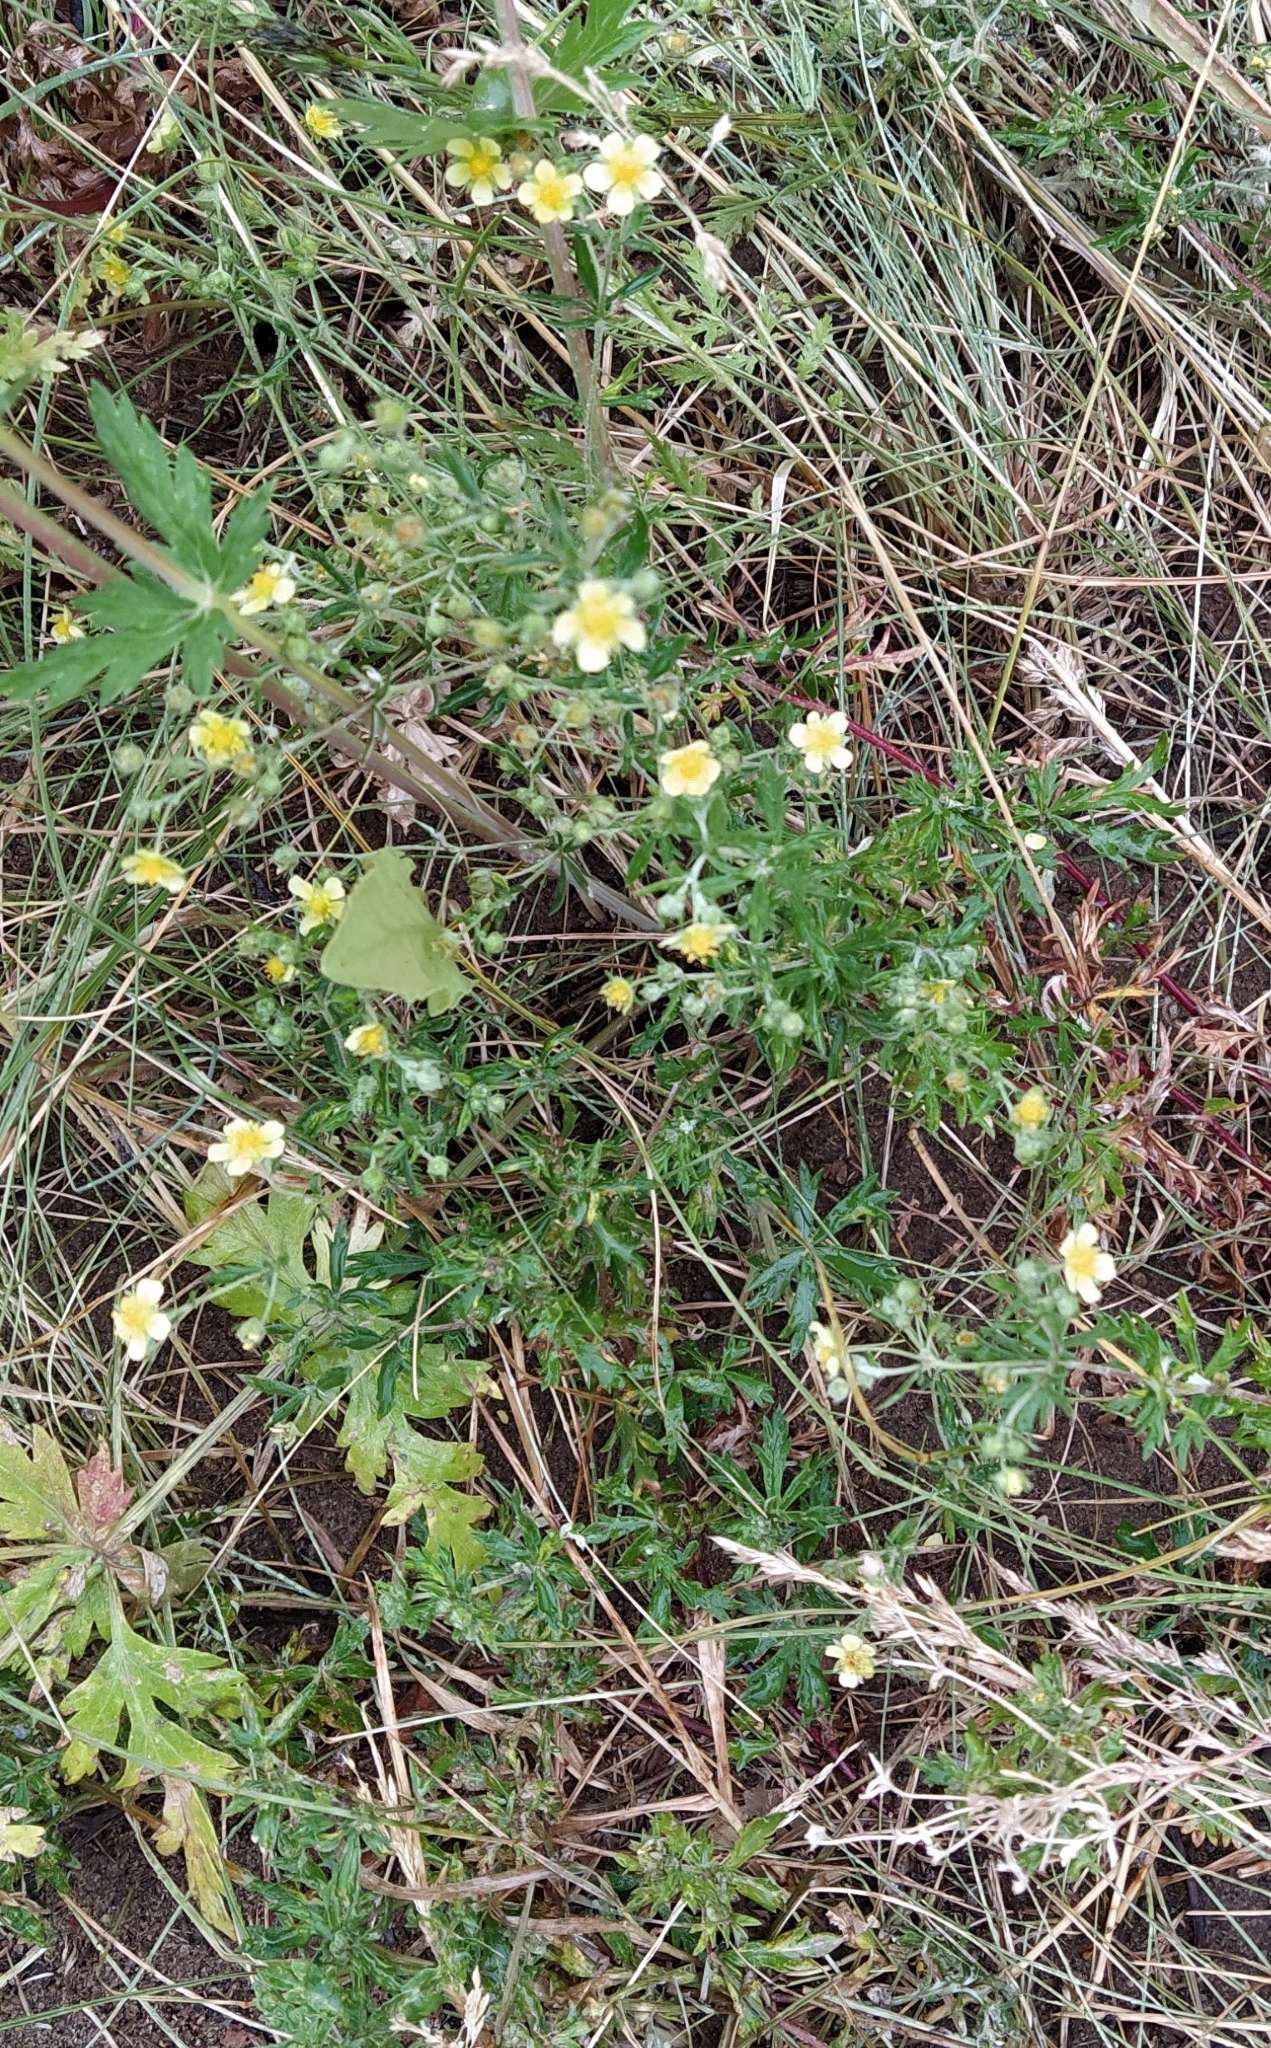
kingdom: Plantae
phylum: Tracheophyta
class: Magnoliopsida
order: Rosales
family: Rosaceae
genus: Potentilla
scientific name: Potentilla argentea
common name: Hoary cinquefoil
